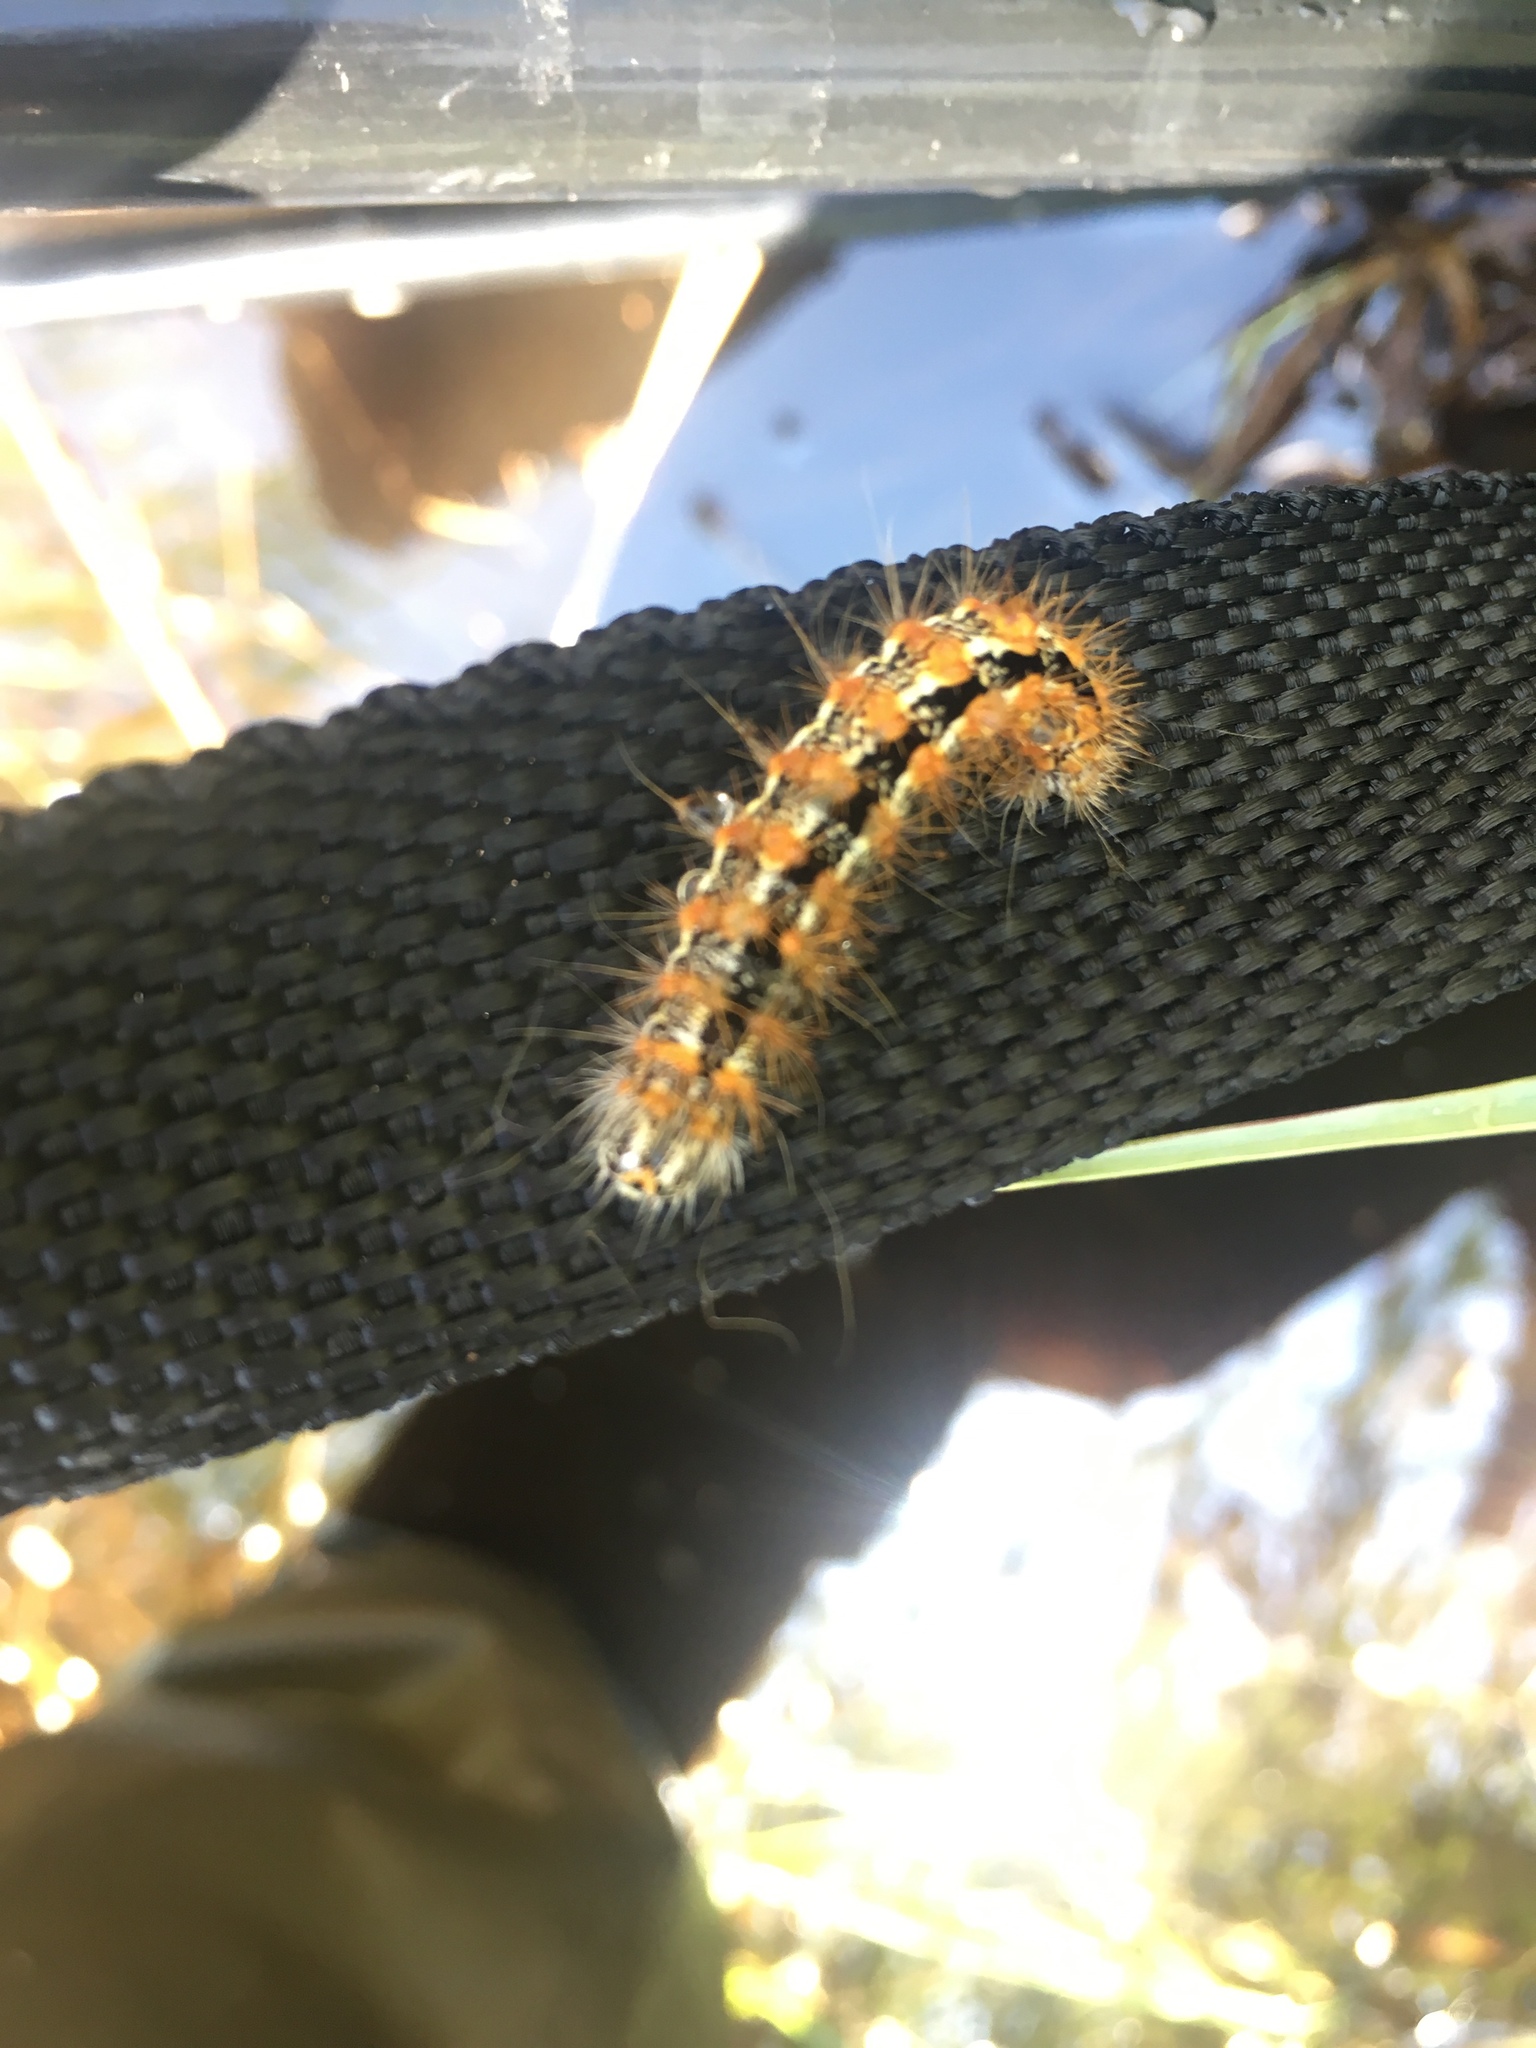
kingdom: Animalia
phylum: Arthropoda
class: Insecta
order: Lepidoptera
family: Noctuidae
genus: Acronicta
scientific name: Acronicta insularis
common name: Henry's marsh moth
